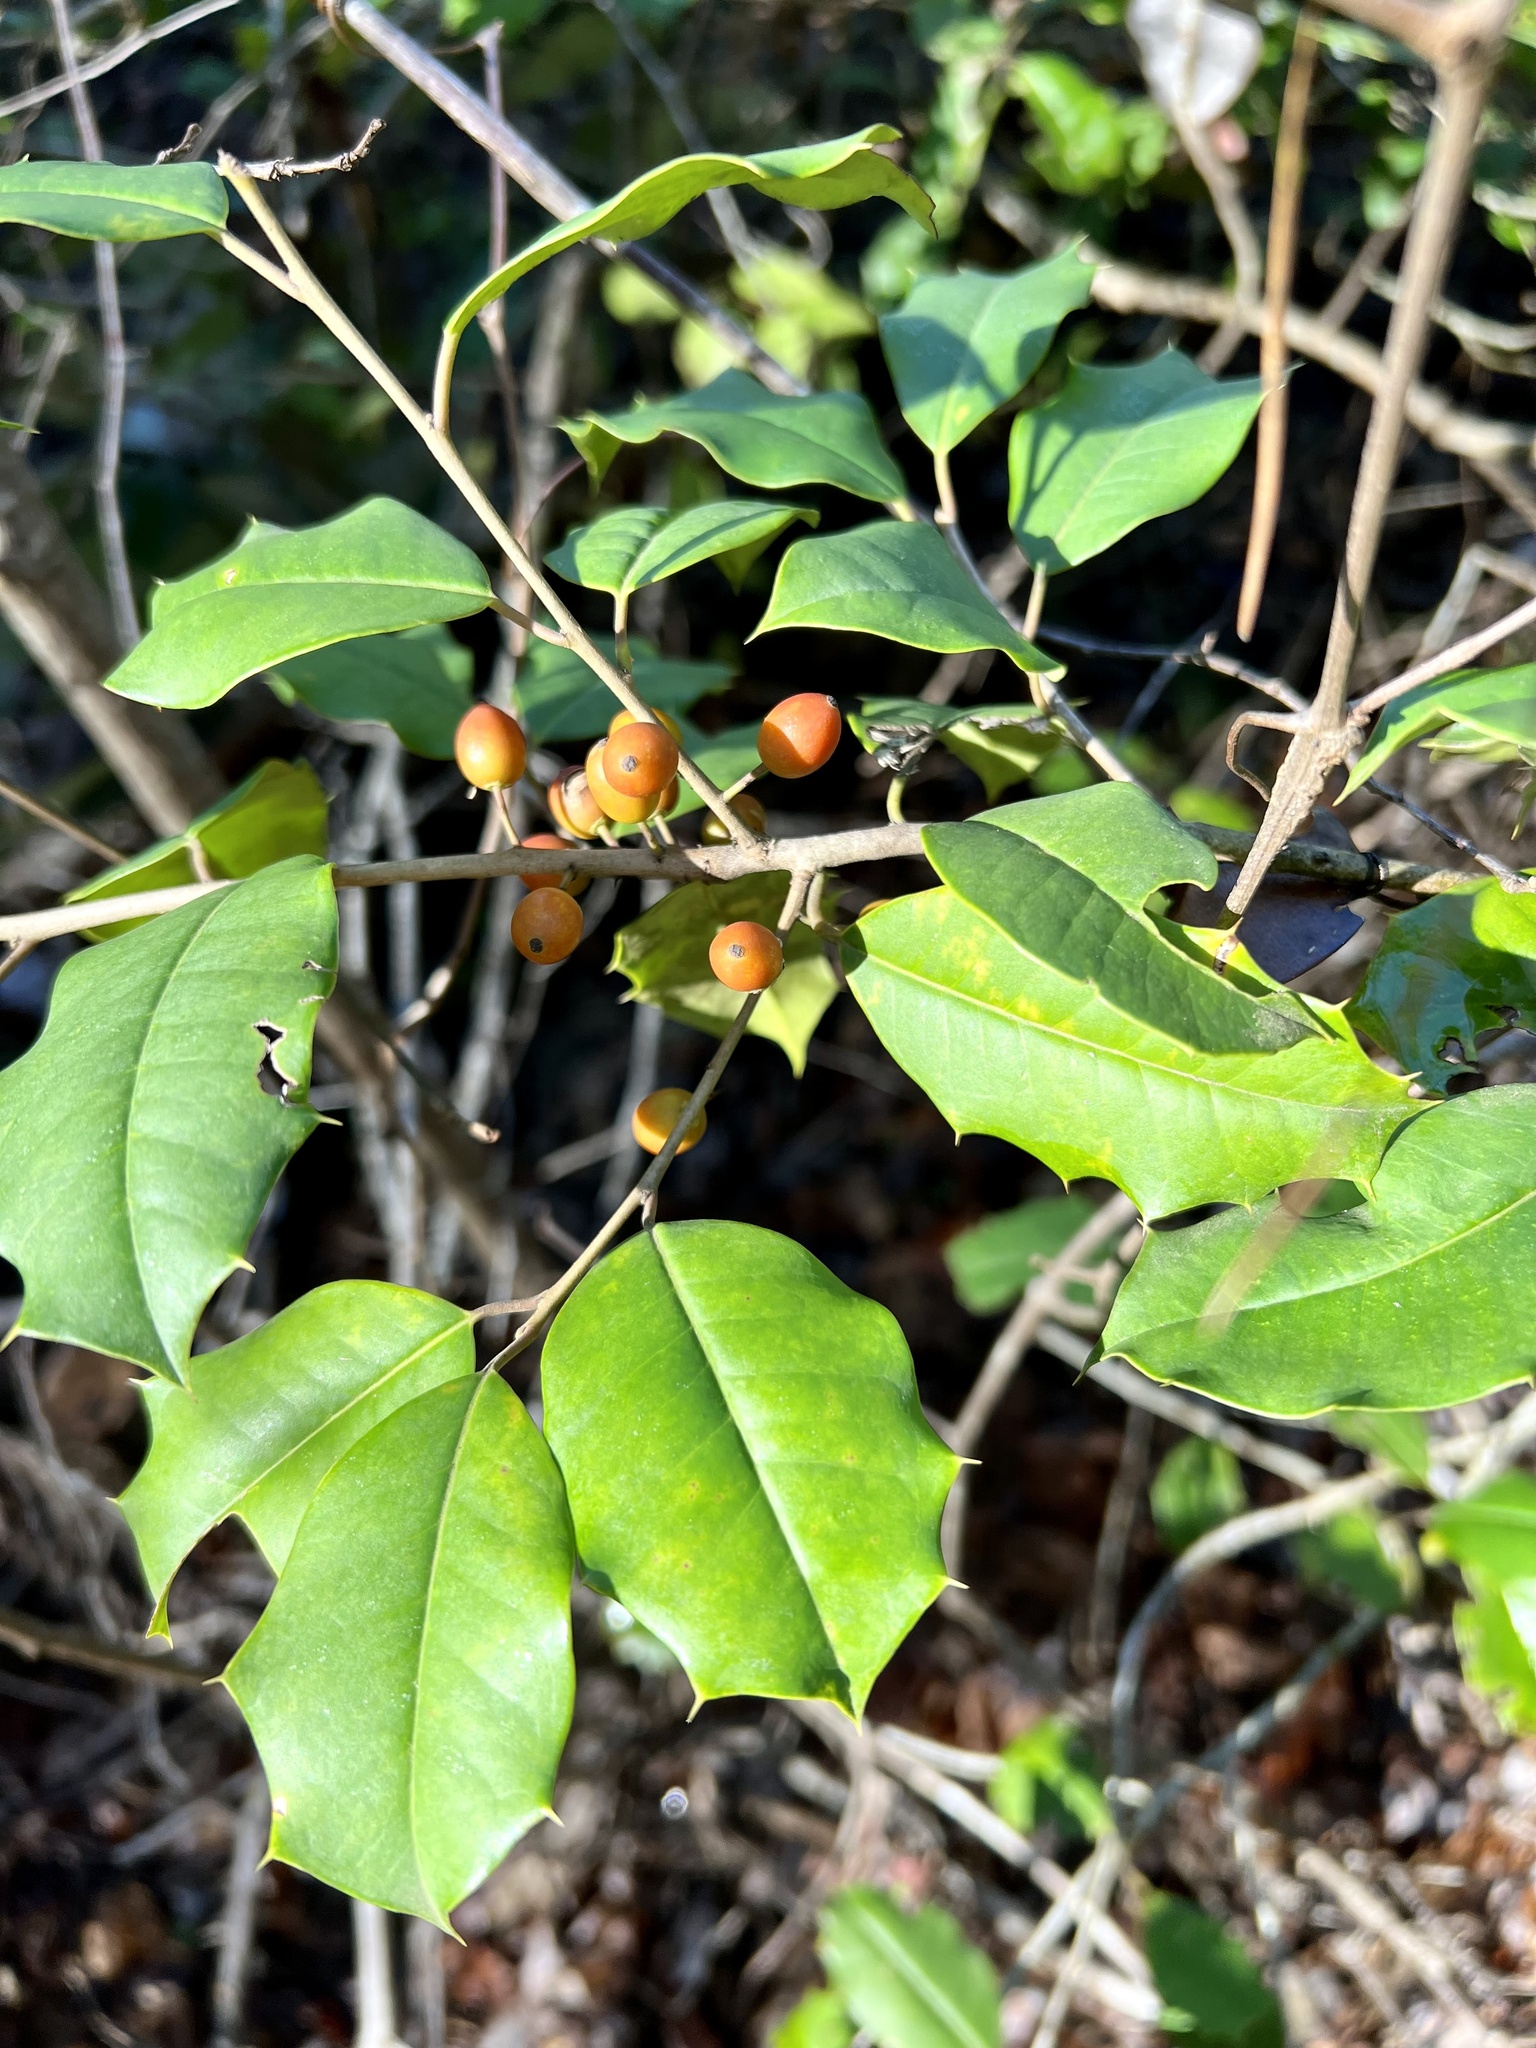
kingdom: Plantae
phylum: Tracheophyta
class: Magnoliopsida
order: Aquifoliales
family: Aquifoliaceae
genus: Ilex
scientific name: Ilex opaca
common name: American holly
